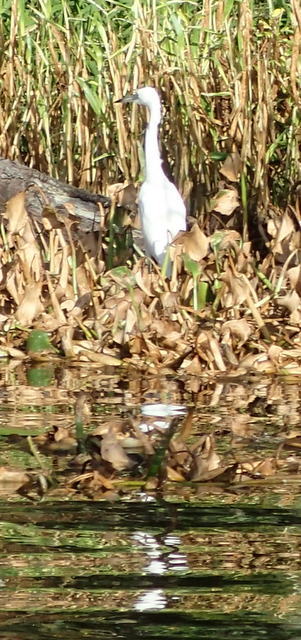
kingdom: Animalia
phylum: Chordata
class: Aves
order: Pelecaniformes
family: Ardeidae
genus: Egretta
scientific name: Egretta caerulea
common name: Little blue heron
